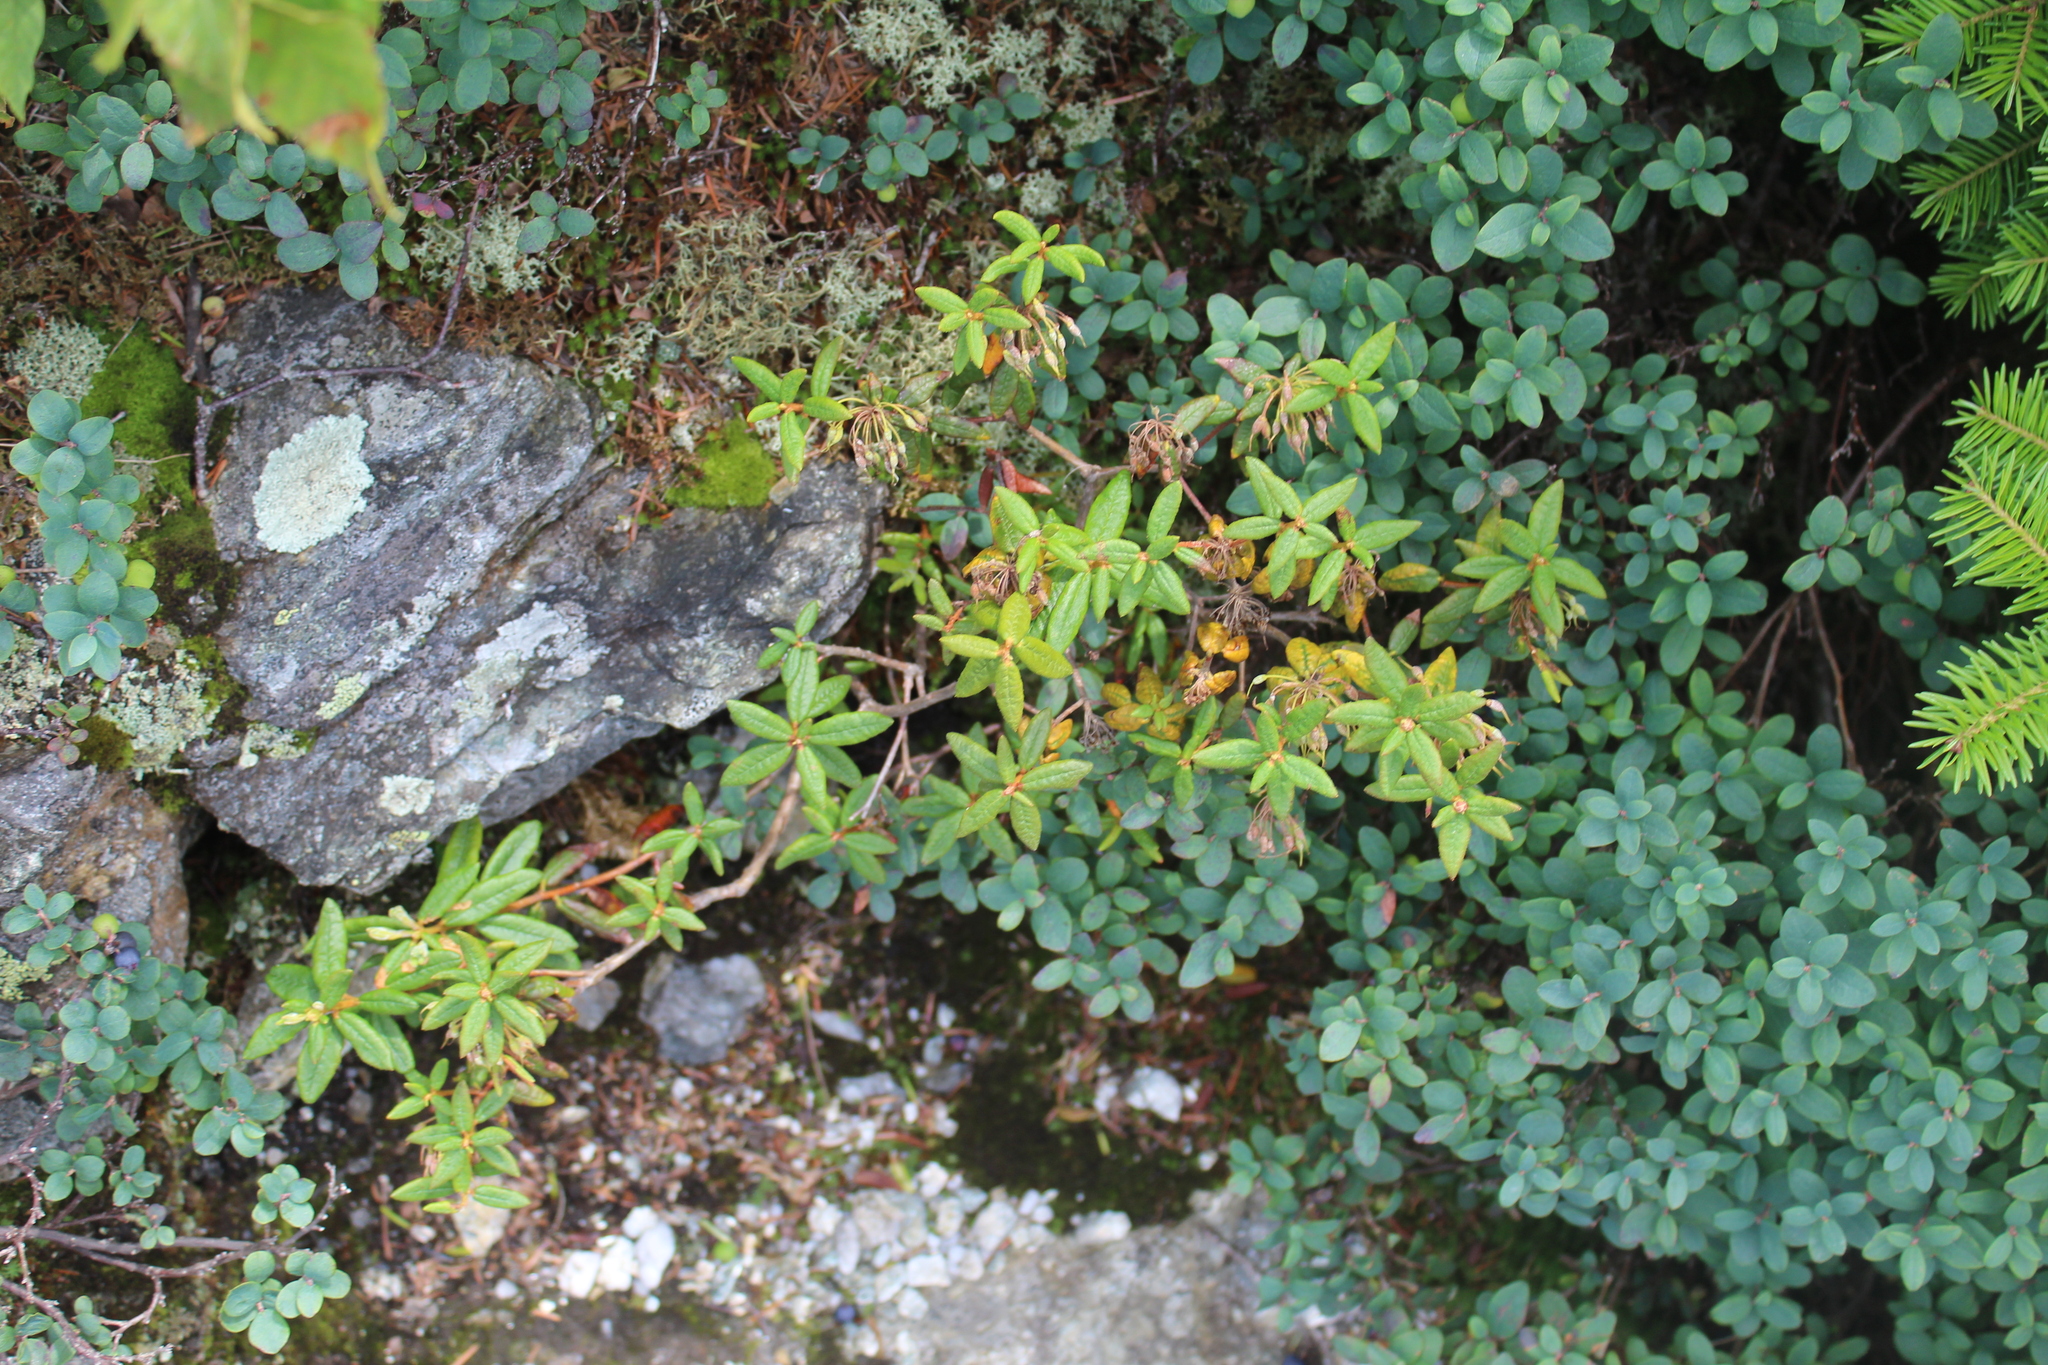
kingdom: Plantae
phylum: Tracheophyta
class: Magnoliopsida
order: Ericales
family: Ericaceae
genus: Rhododendron
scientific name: Rhododendron groenlandicum
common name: Bog labrador tea
